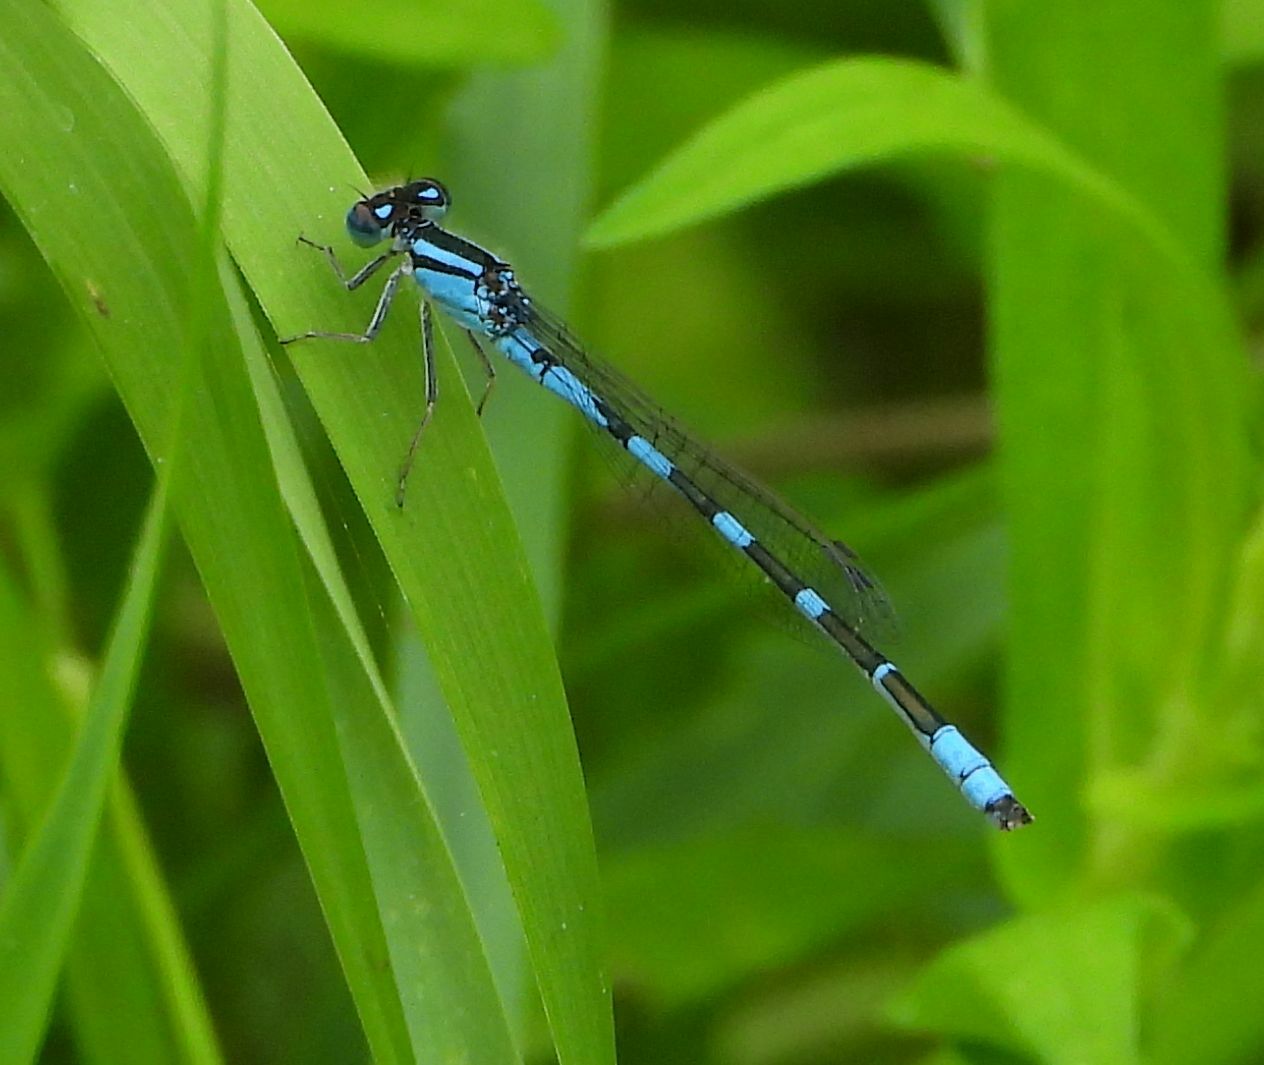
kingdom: Animalia
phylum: Arthropoda
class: Insecta
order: Odonata
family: Coenagrionidae
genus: Enallagma
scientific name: Enallagma carunculatum
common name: Tule bluet
